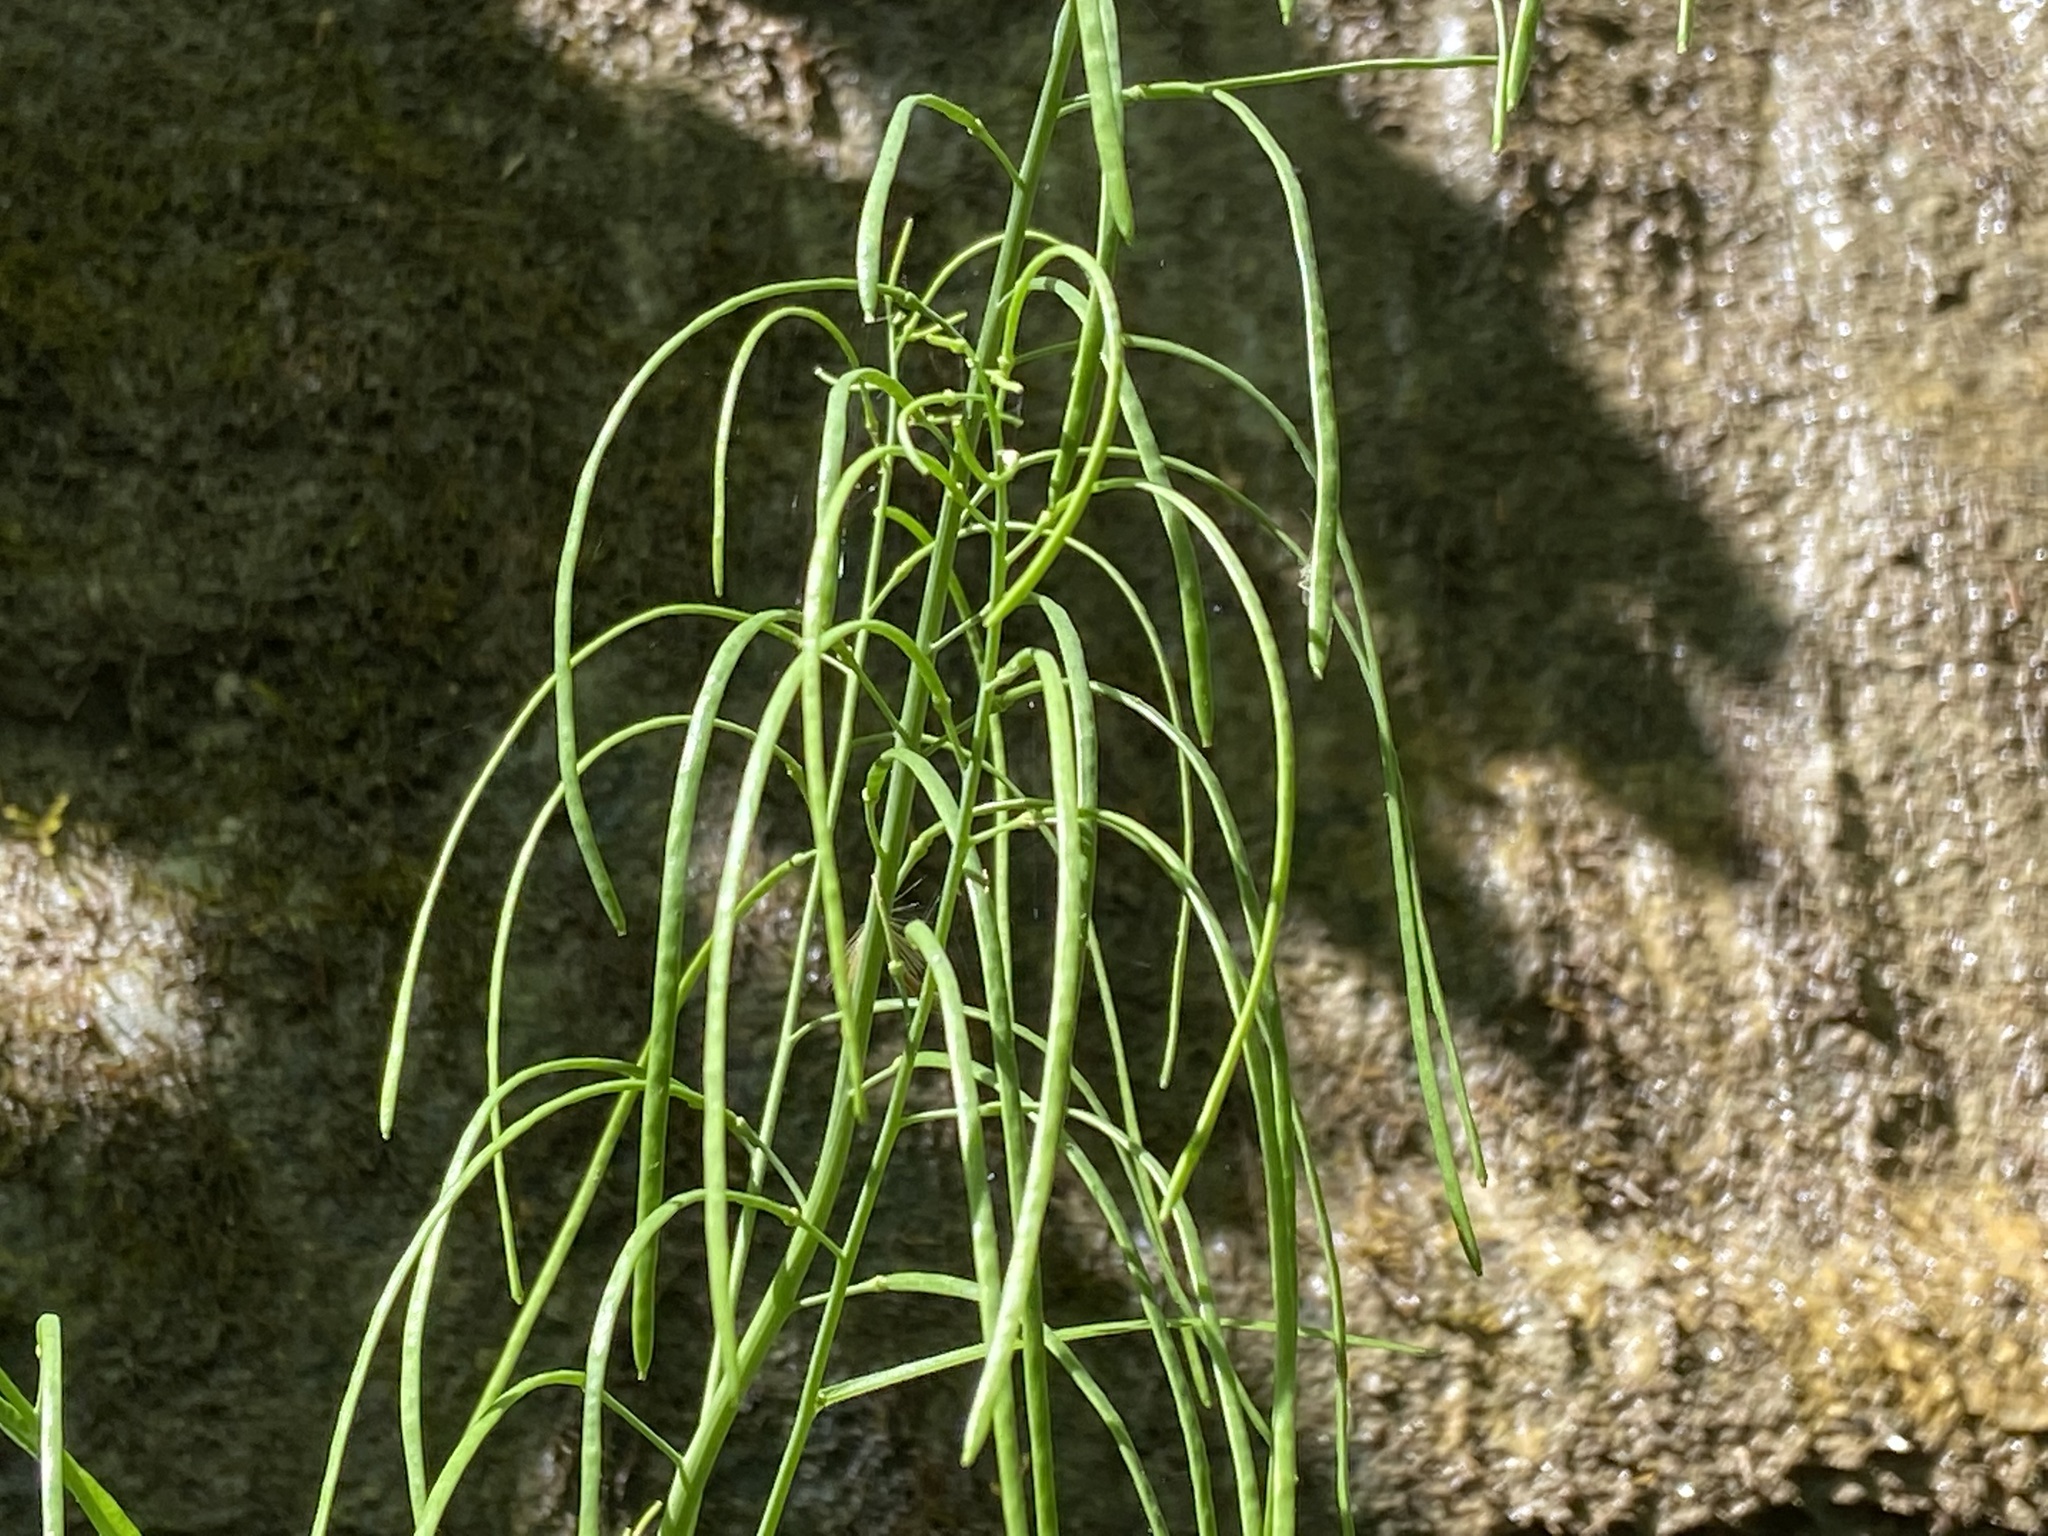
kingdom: Plantae
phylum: Tracheophyta
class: Magnoliopsida
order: Brassicales
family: Brassicaceae
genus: Borodinia
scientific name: Borodinia laevigata
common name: Smooth rockcress
